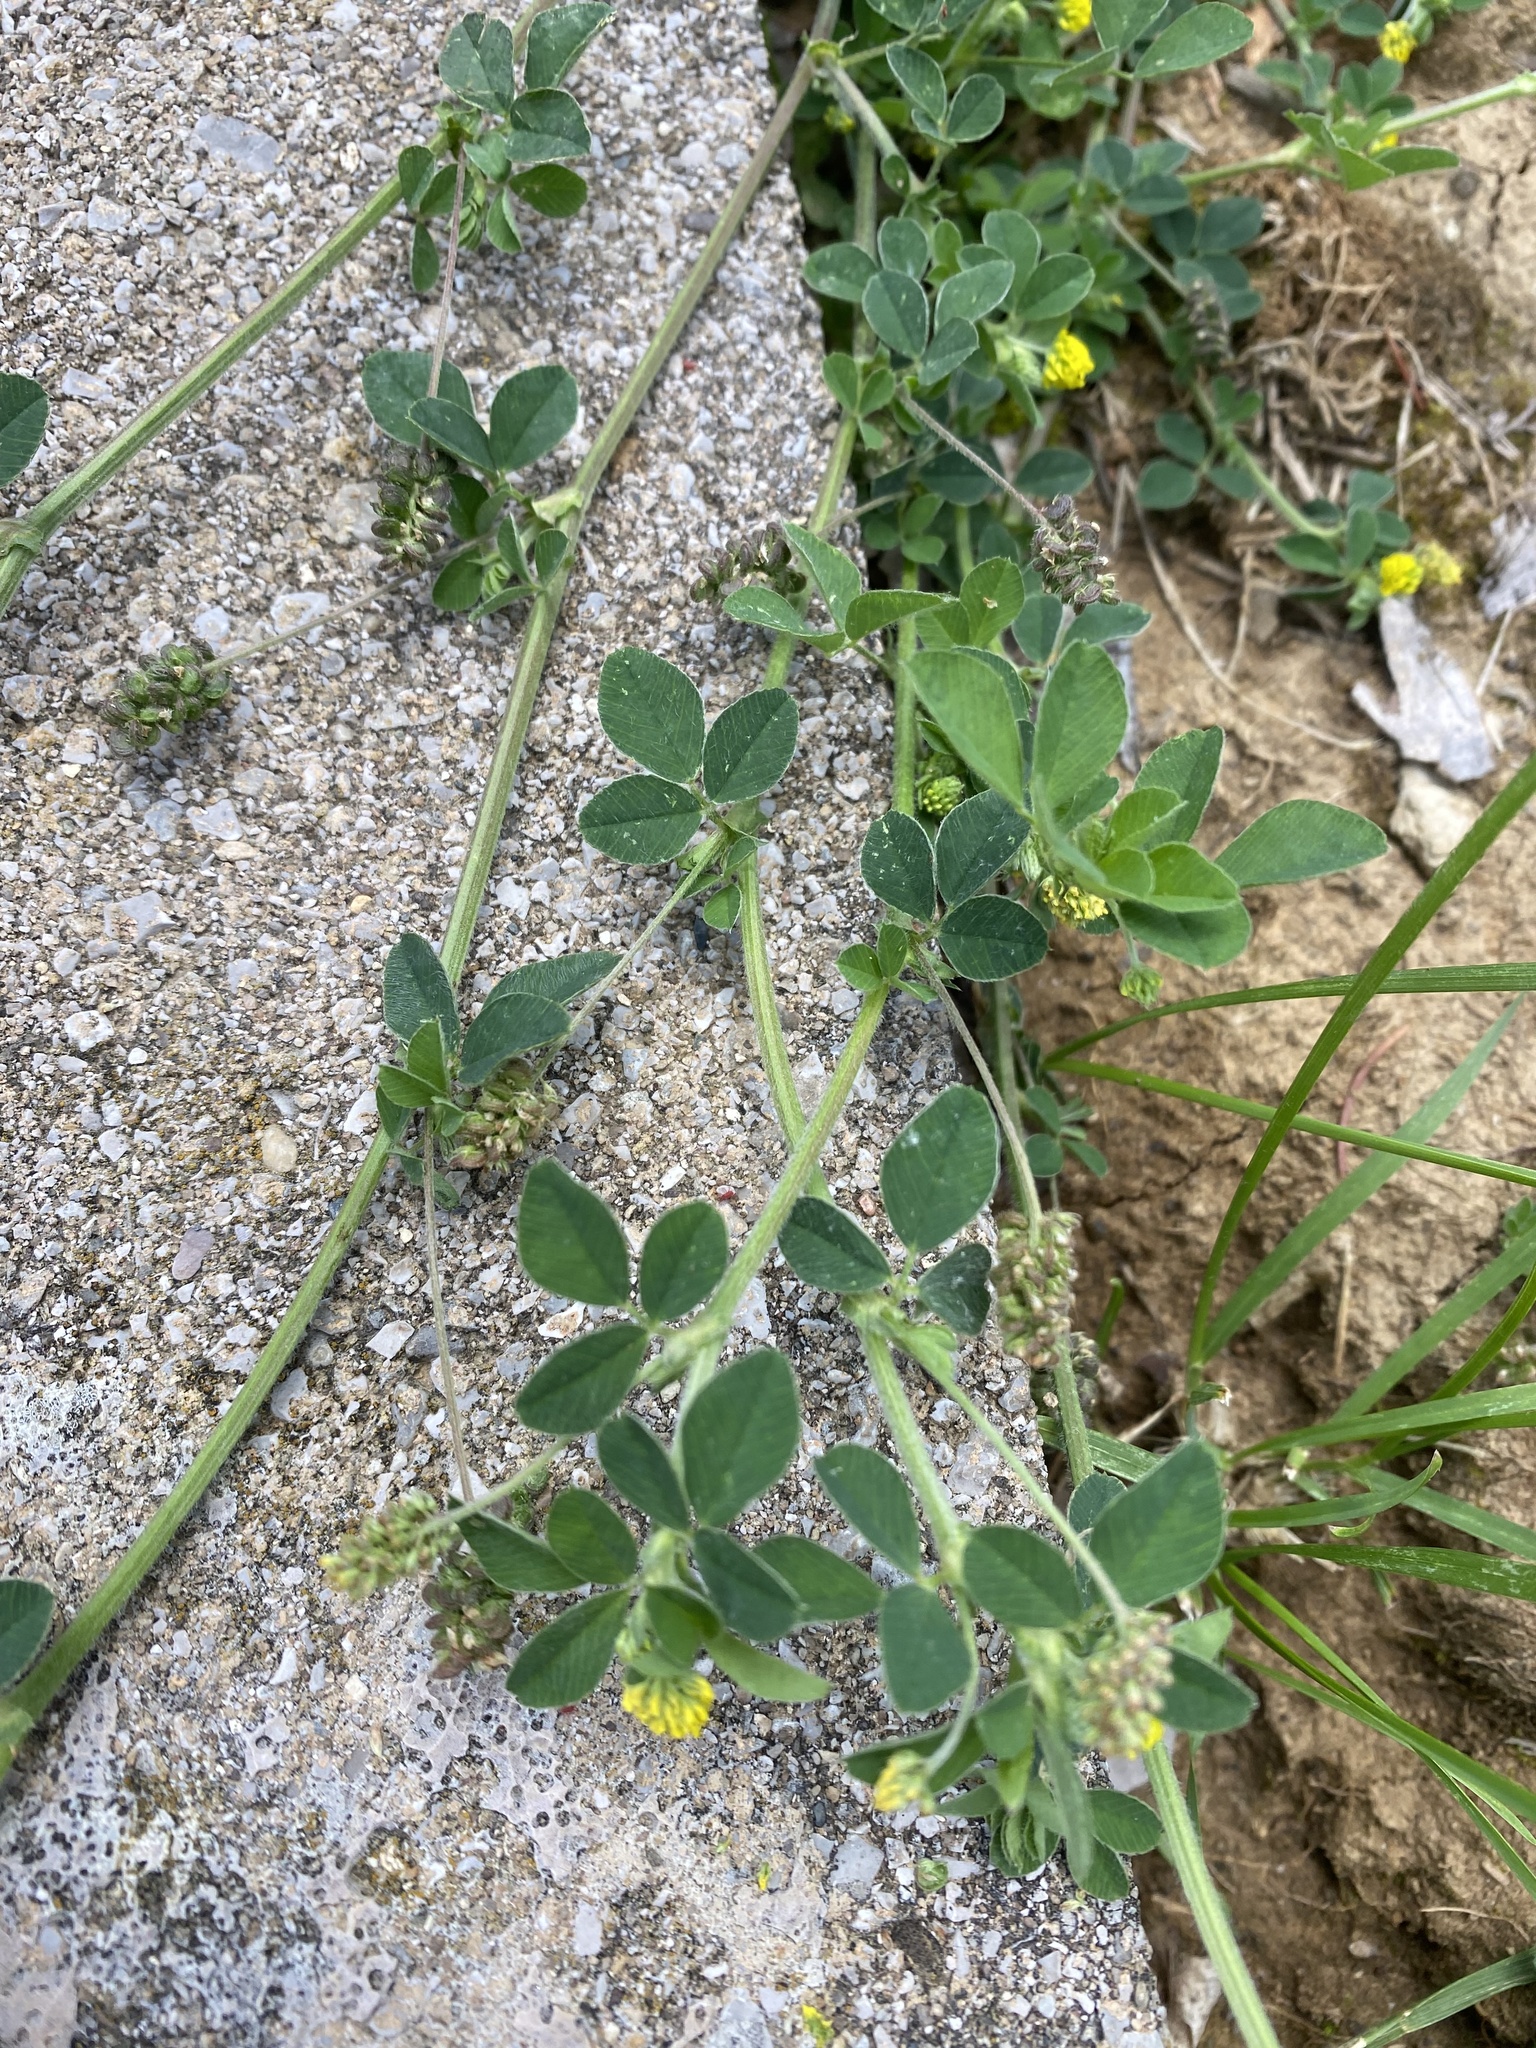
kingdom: Plantae
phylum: Tracheophyta
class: Magnoliopsida
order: Fabales
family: Fabaceae
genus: Medicago
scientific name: Medicago lupulina
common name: Black medick
